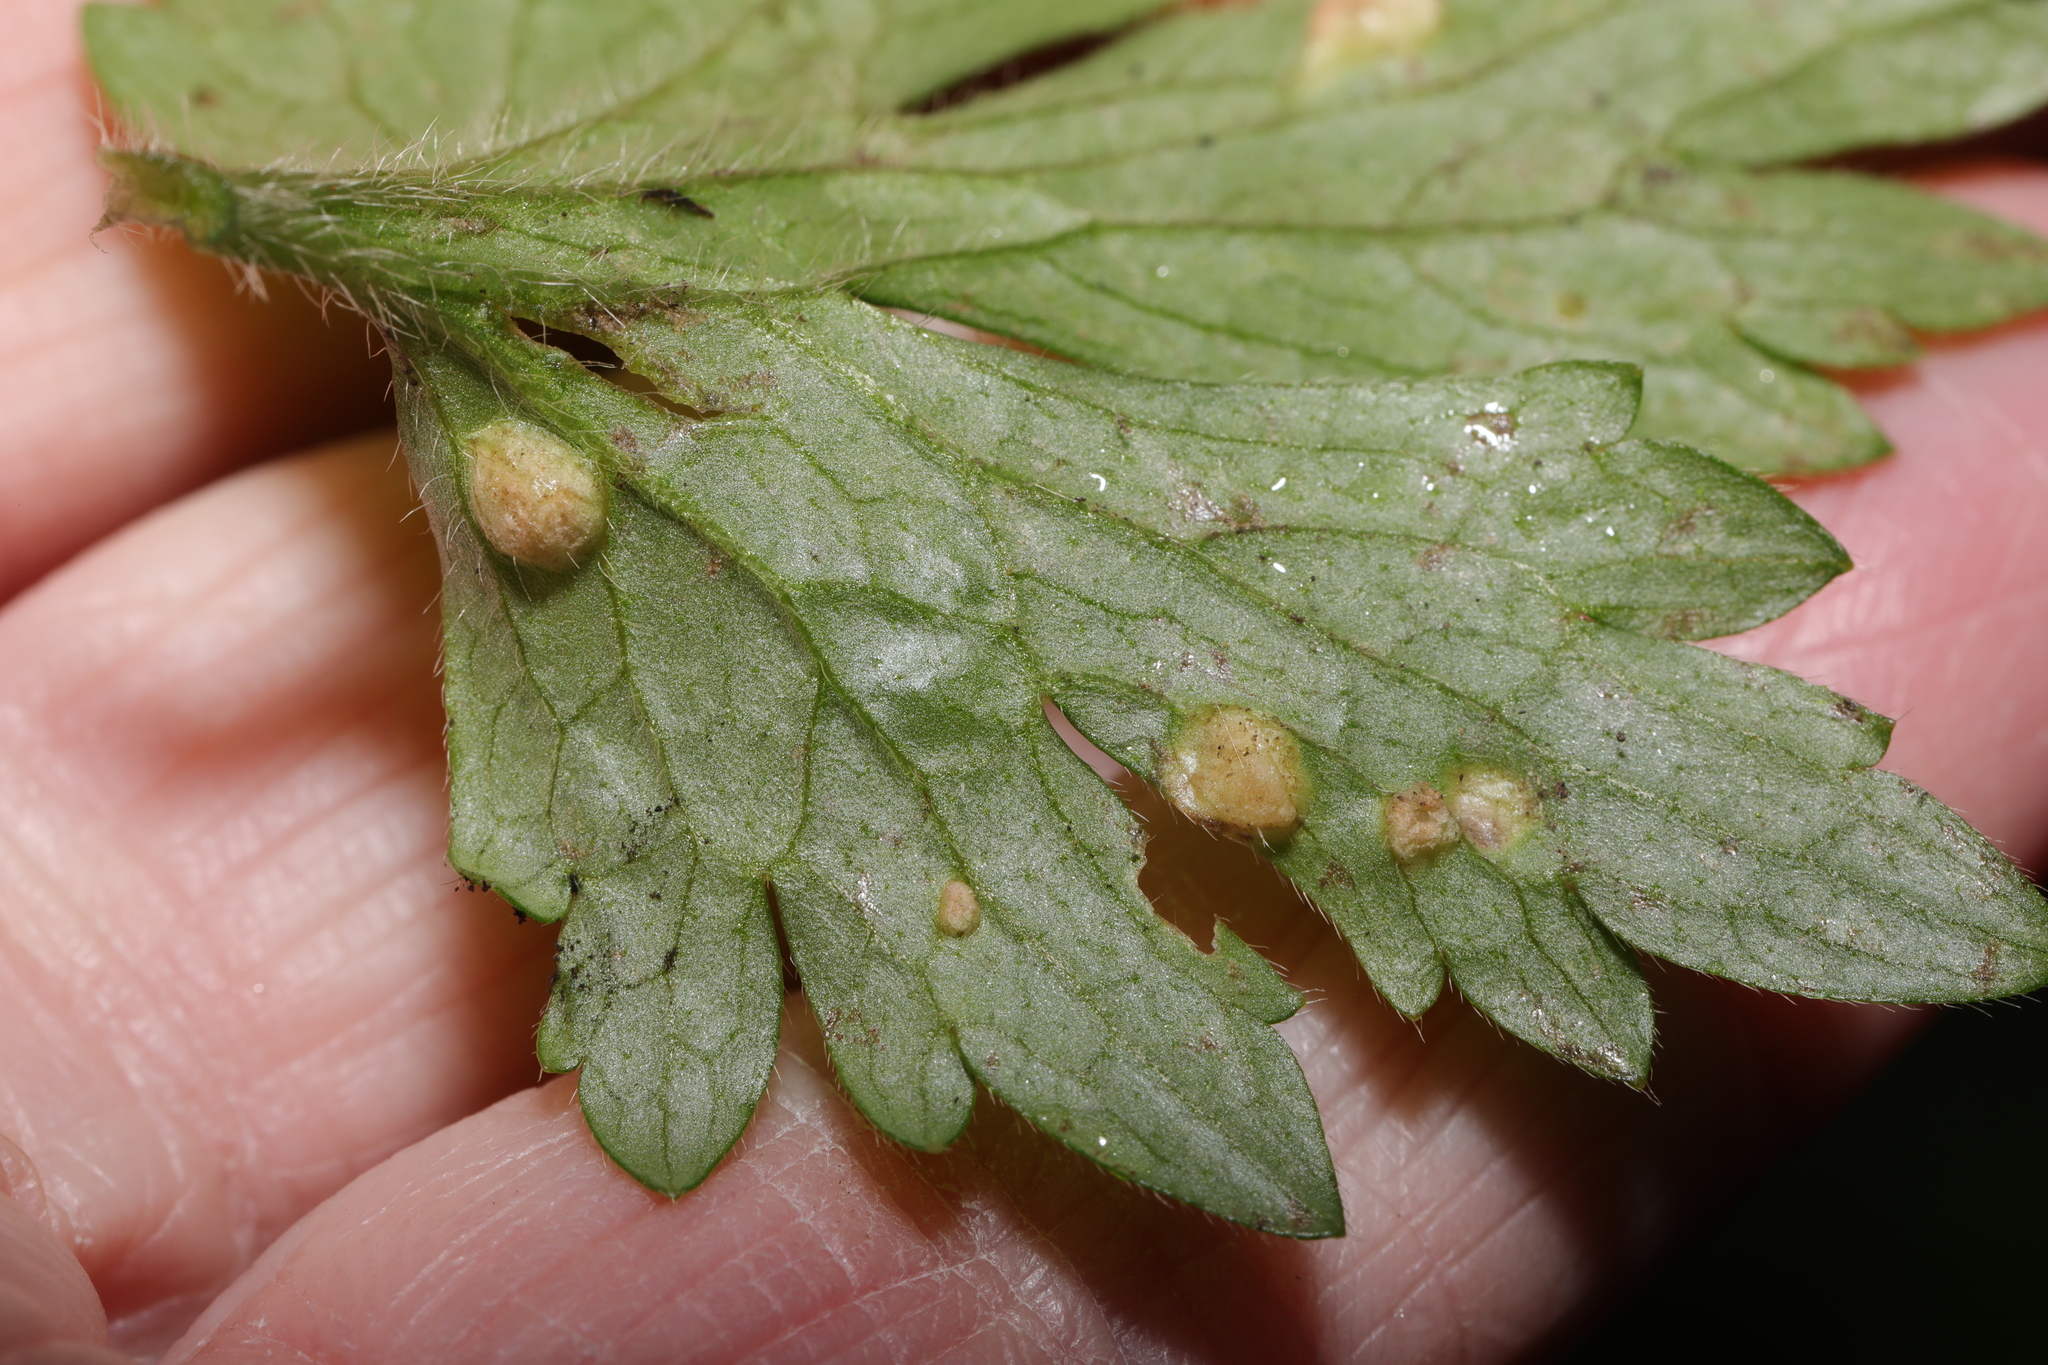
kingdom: Fungi
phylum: Basidiomycota
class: Exobasidiomycetes
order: Entylomatales
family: Entylomataceae
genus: Entyloma
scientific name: Entyloma
